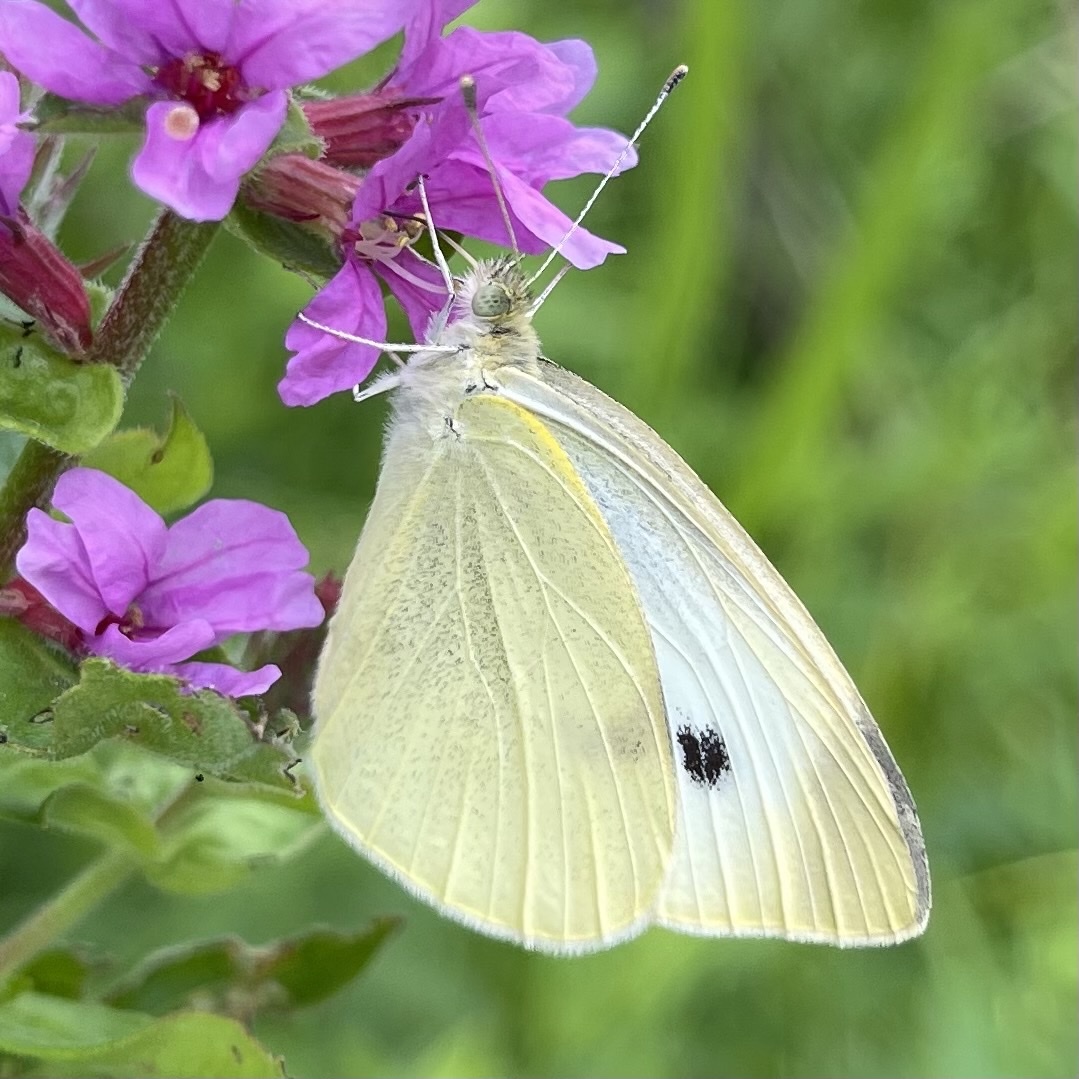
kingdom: Animalia
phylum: Arthropoda
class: Insecta
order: Lepidoptera
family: Pieridae
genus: Pieris
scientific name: Pieris rapae
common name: Small white
